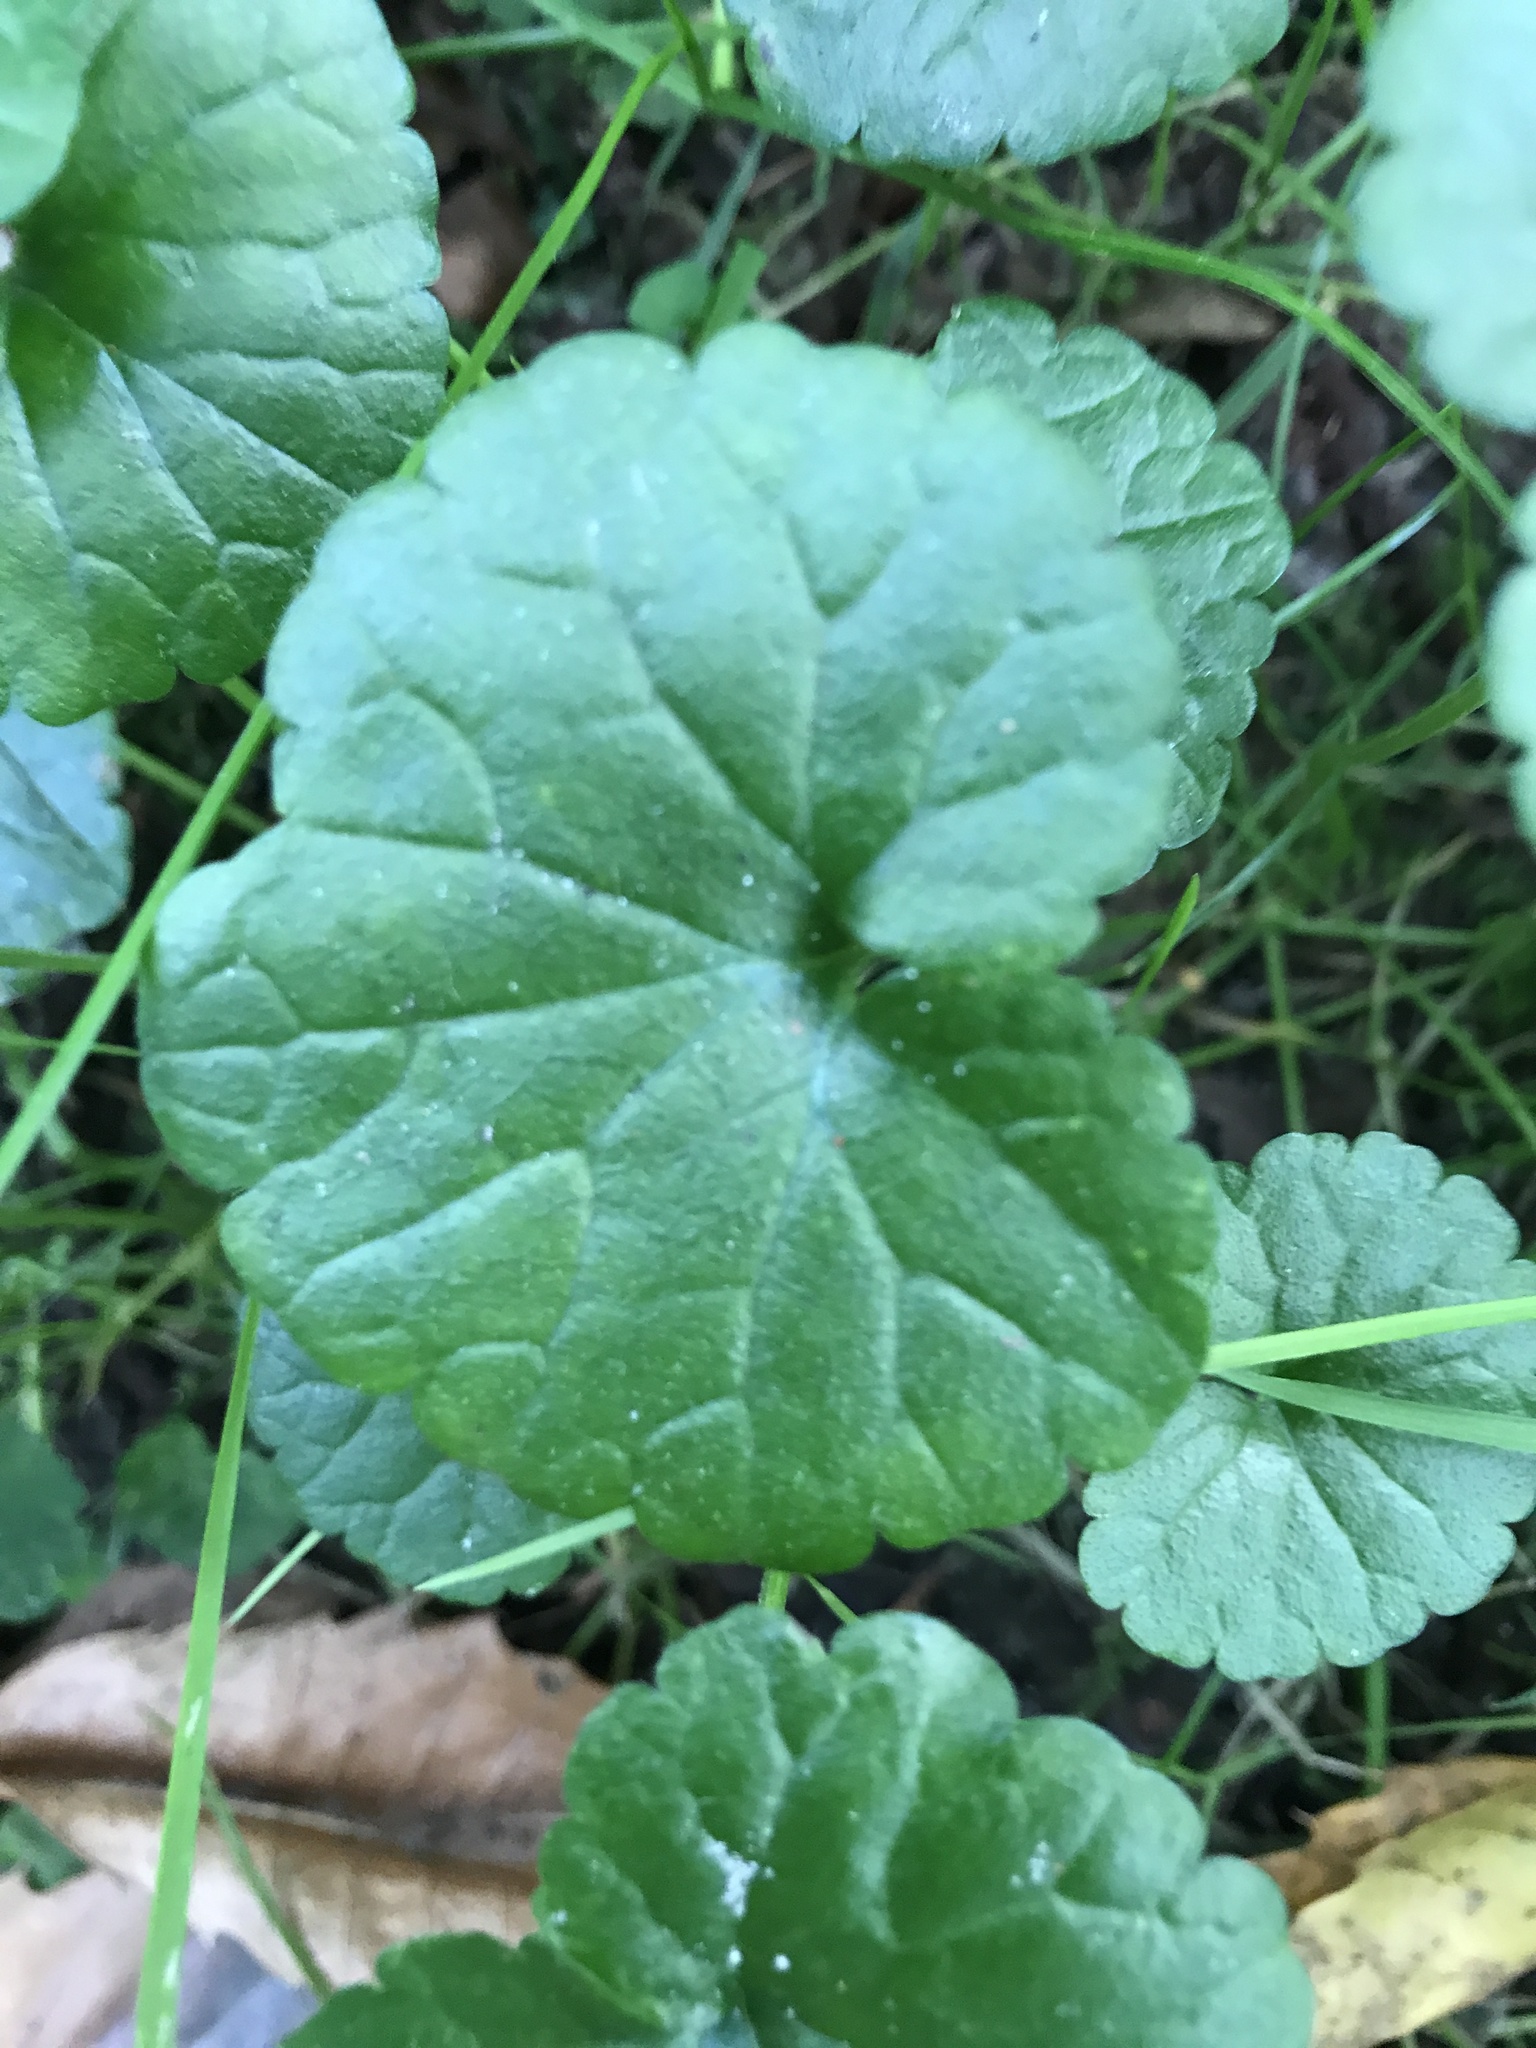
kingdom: Plantae
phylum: Tracheophyta
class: Magnoliopsida
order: Lamiales
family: Lamiaceae
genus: Glechoma
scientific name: Glechoma hederacea
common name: Ground ivy
